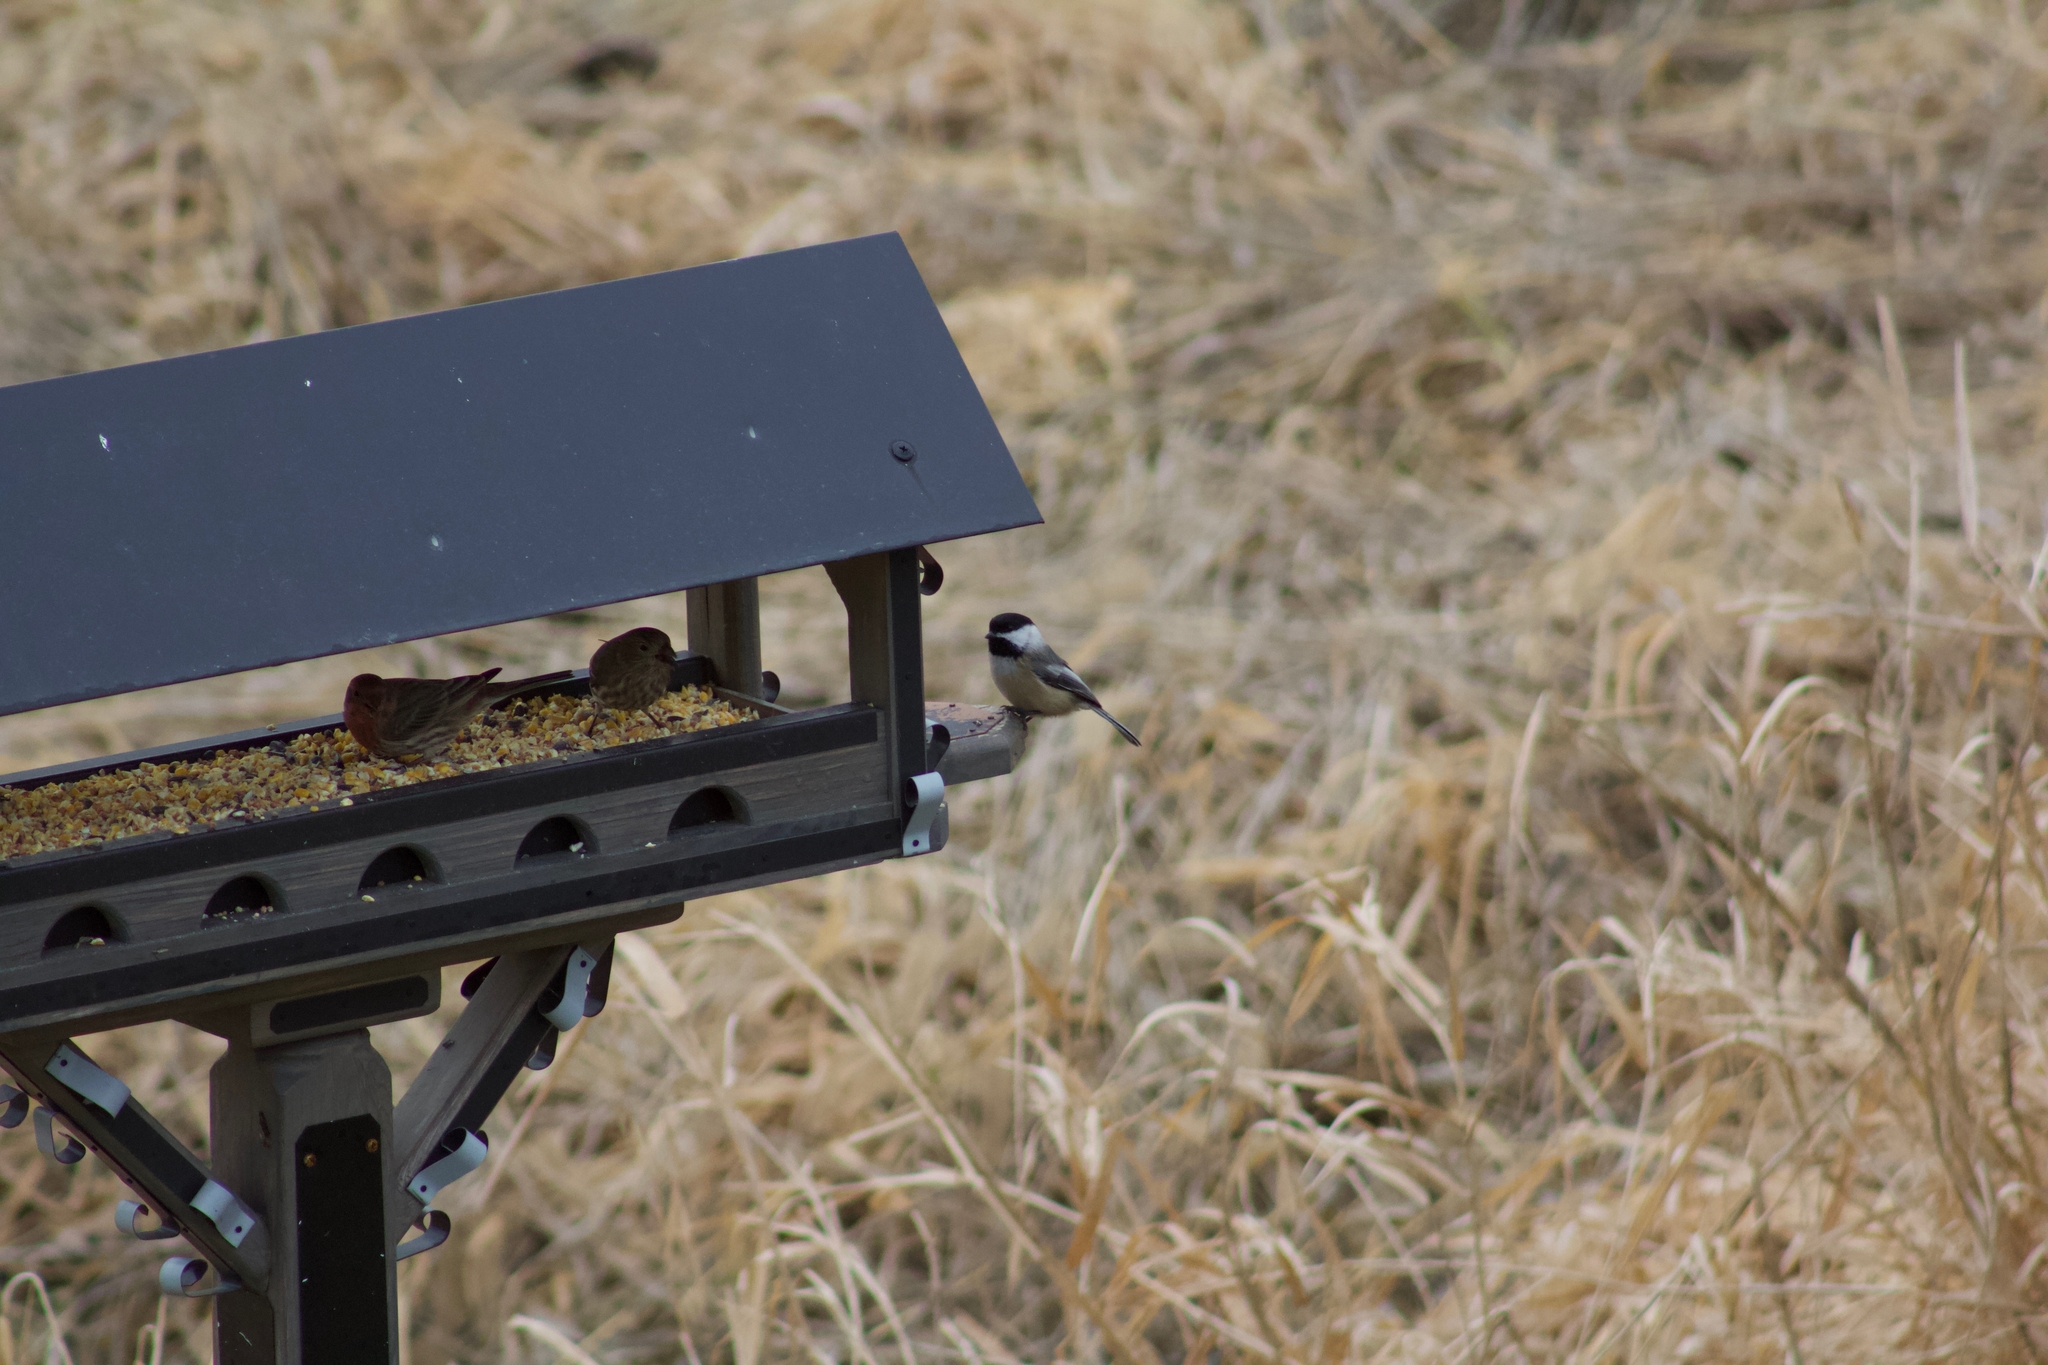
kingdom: Animalia
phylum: Chordata
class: Aves
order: Passeriformes
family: Paridae
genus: Poecile
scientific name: Poecile atricapillus
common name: Black-capped chickadee
